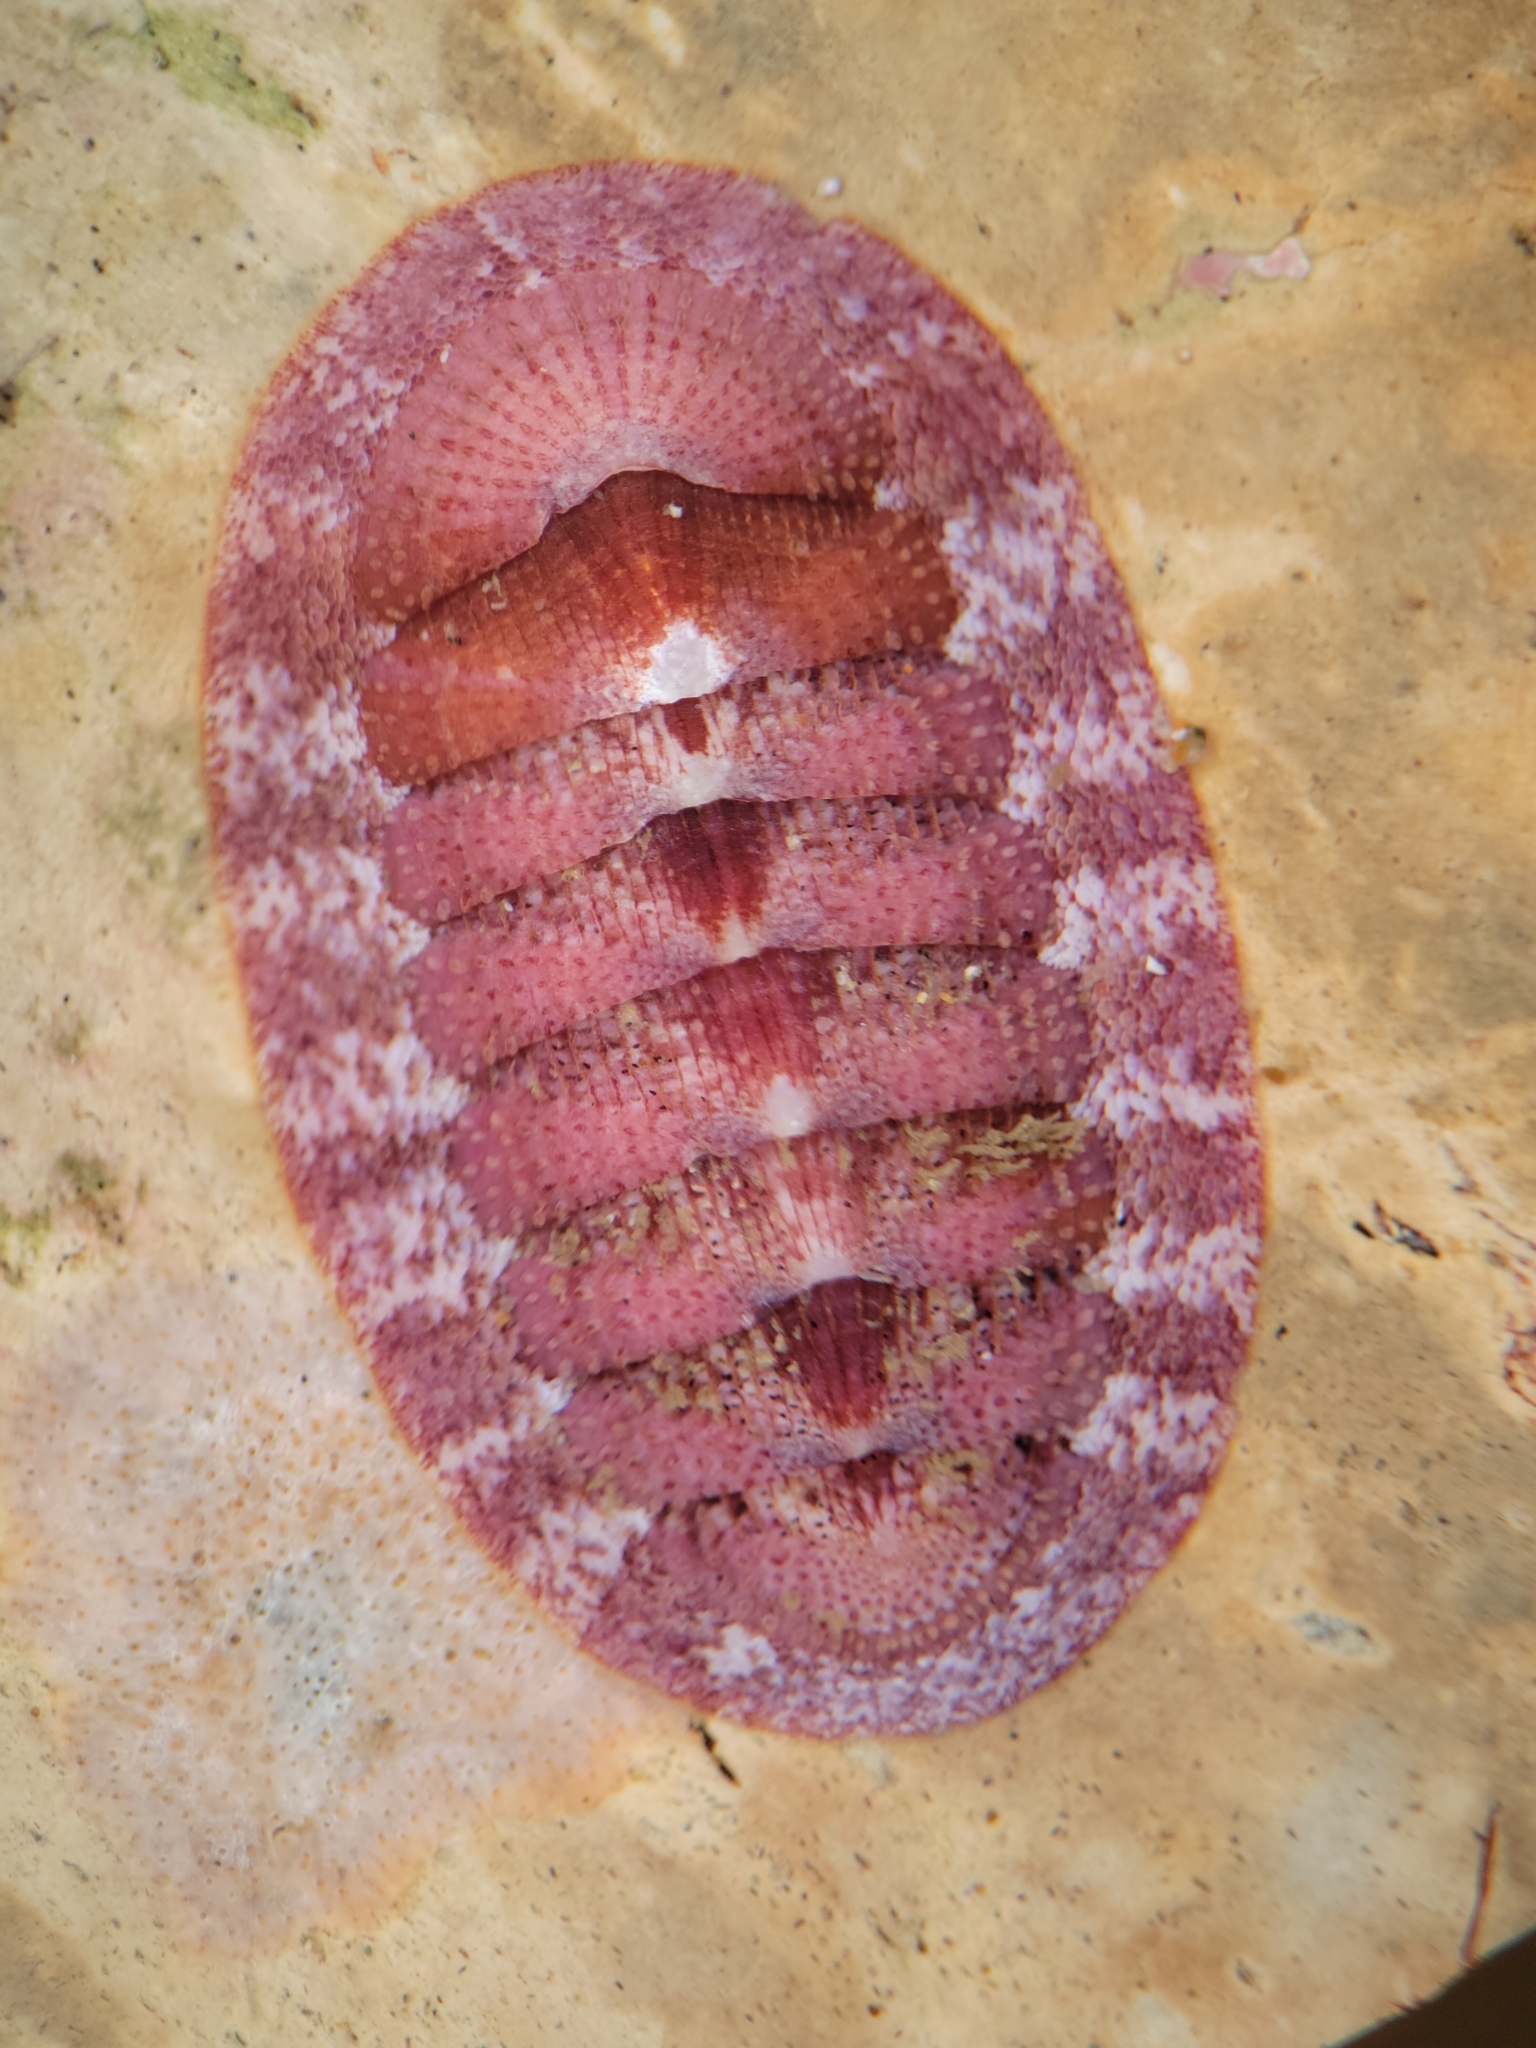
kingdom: Animalia
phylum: Mollusca
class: Polyplacophora
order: Chitonida
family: Ischnochitonidae
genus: Lepidozona
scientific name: Lepidozona mertensii
